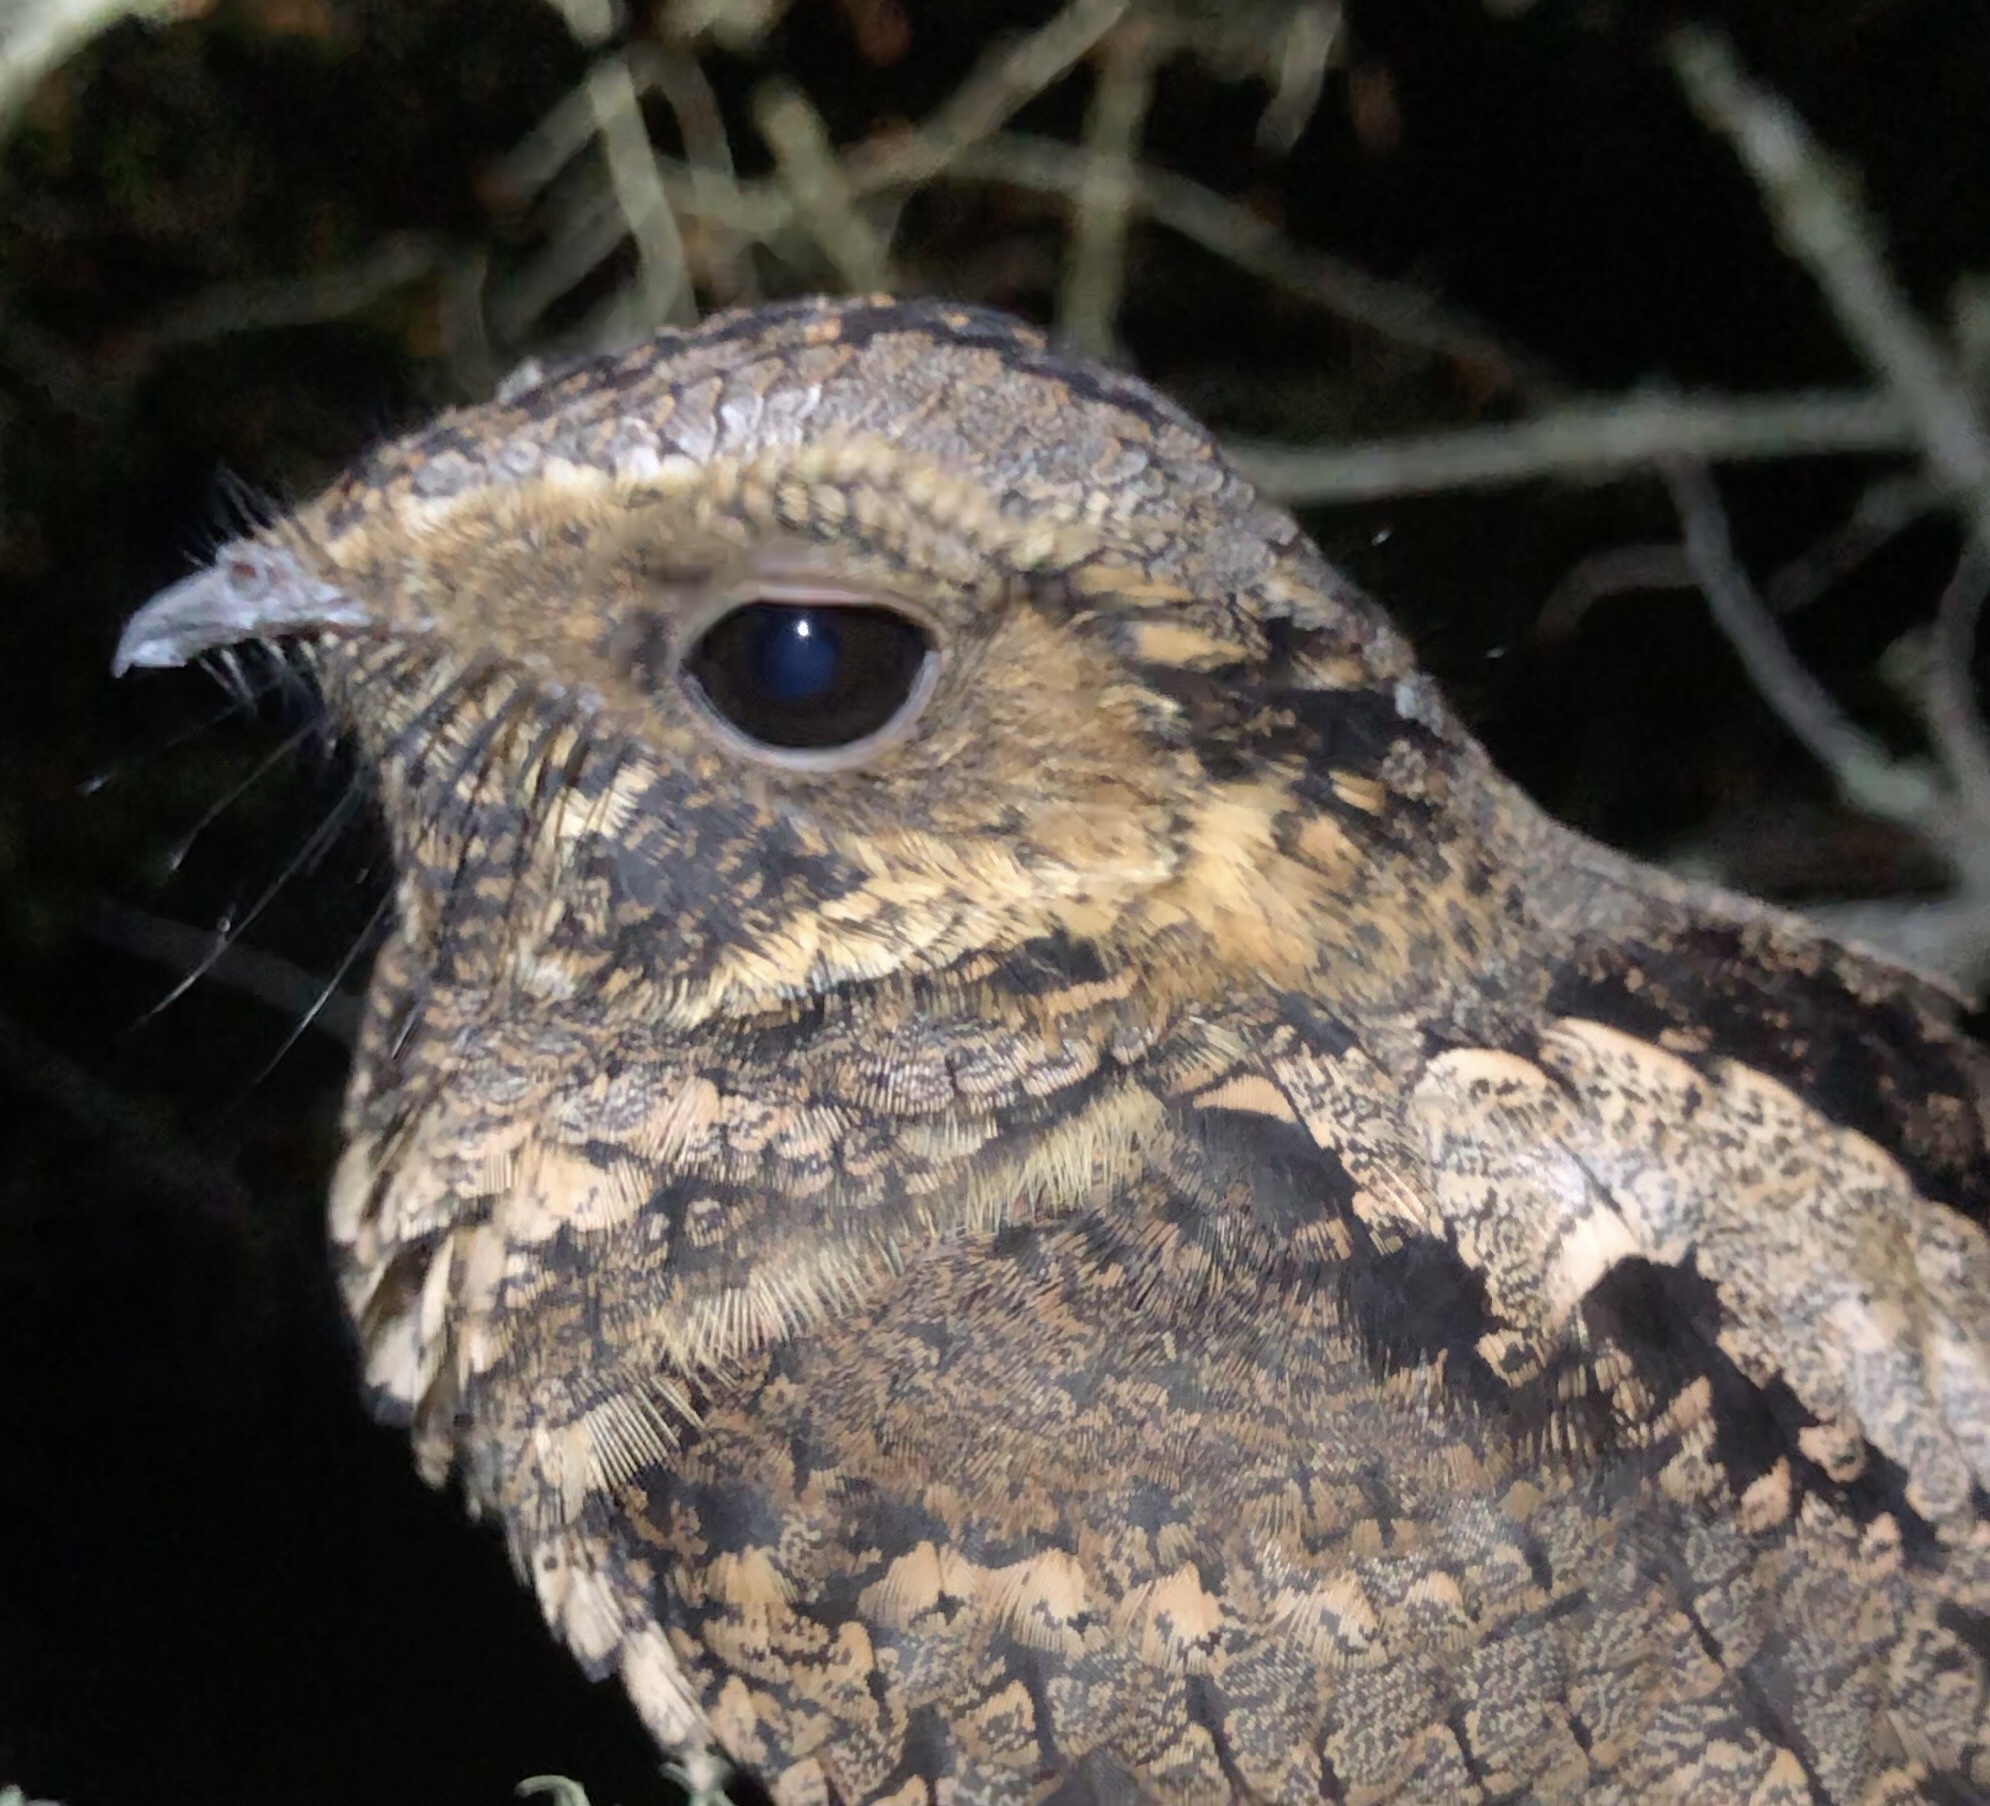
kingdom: Animalia
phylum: Chordata
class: Aves
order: Caprimulgiformes
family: Caprimulgidae
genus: Antrostomus
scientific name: Antrostomus vociferus
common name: Eastern whip-poor-will
